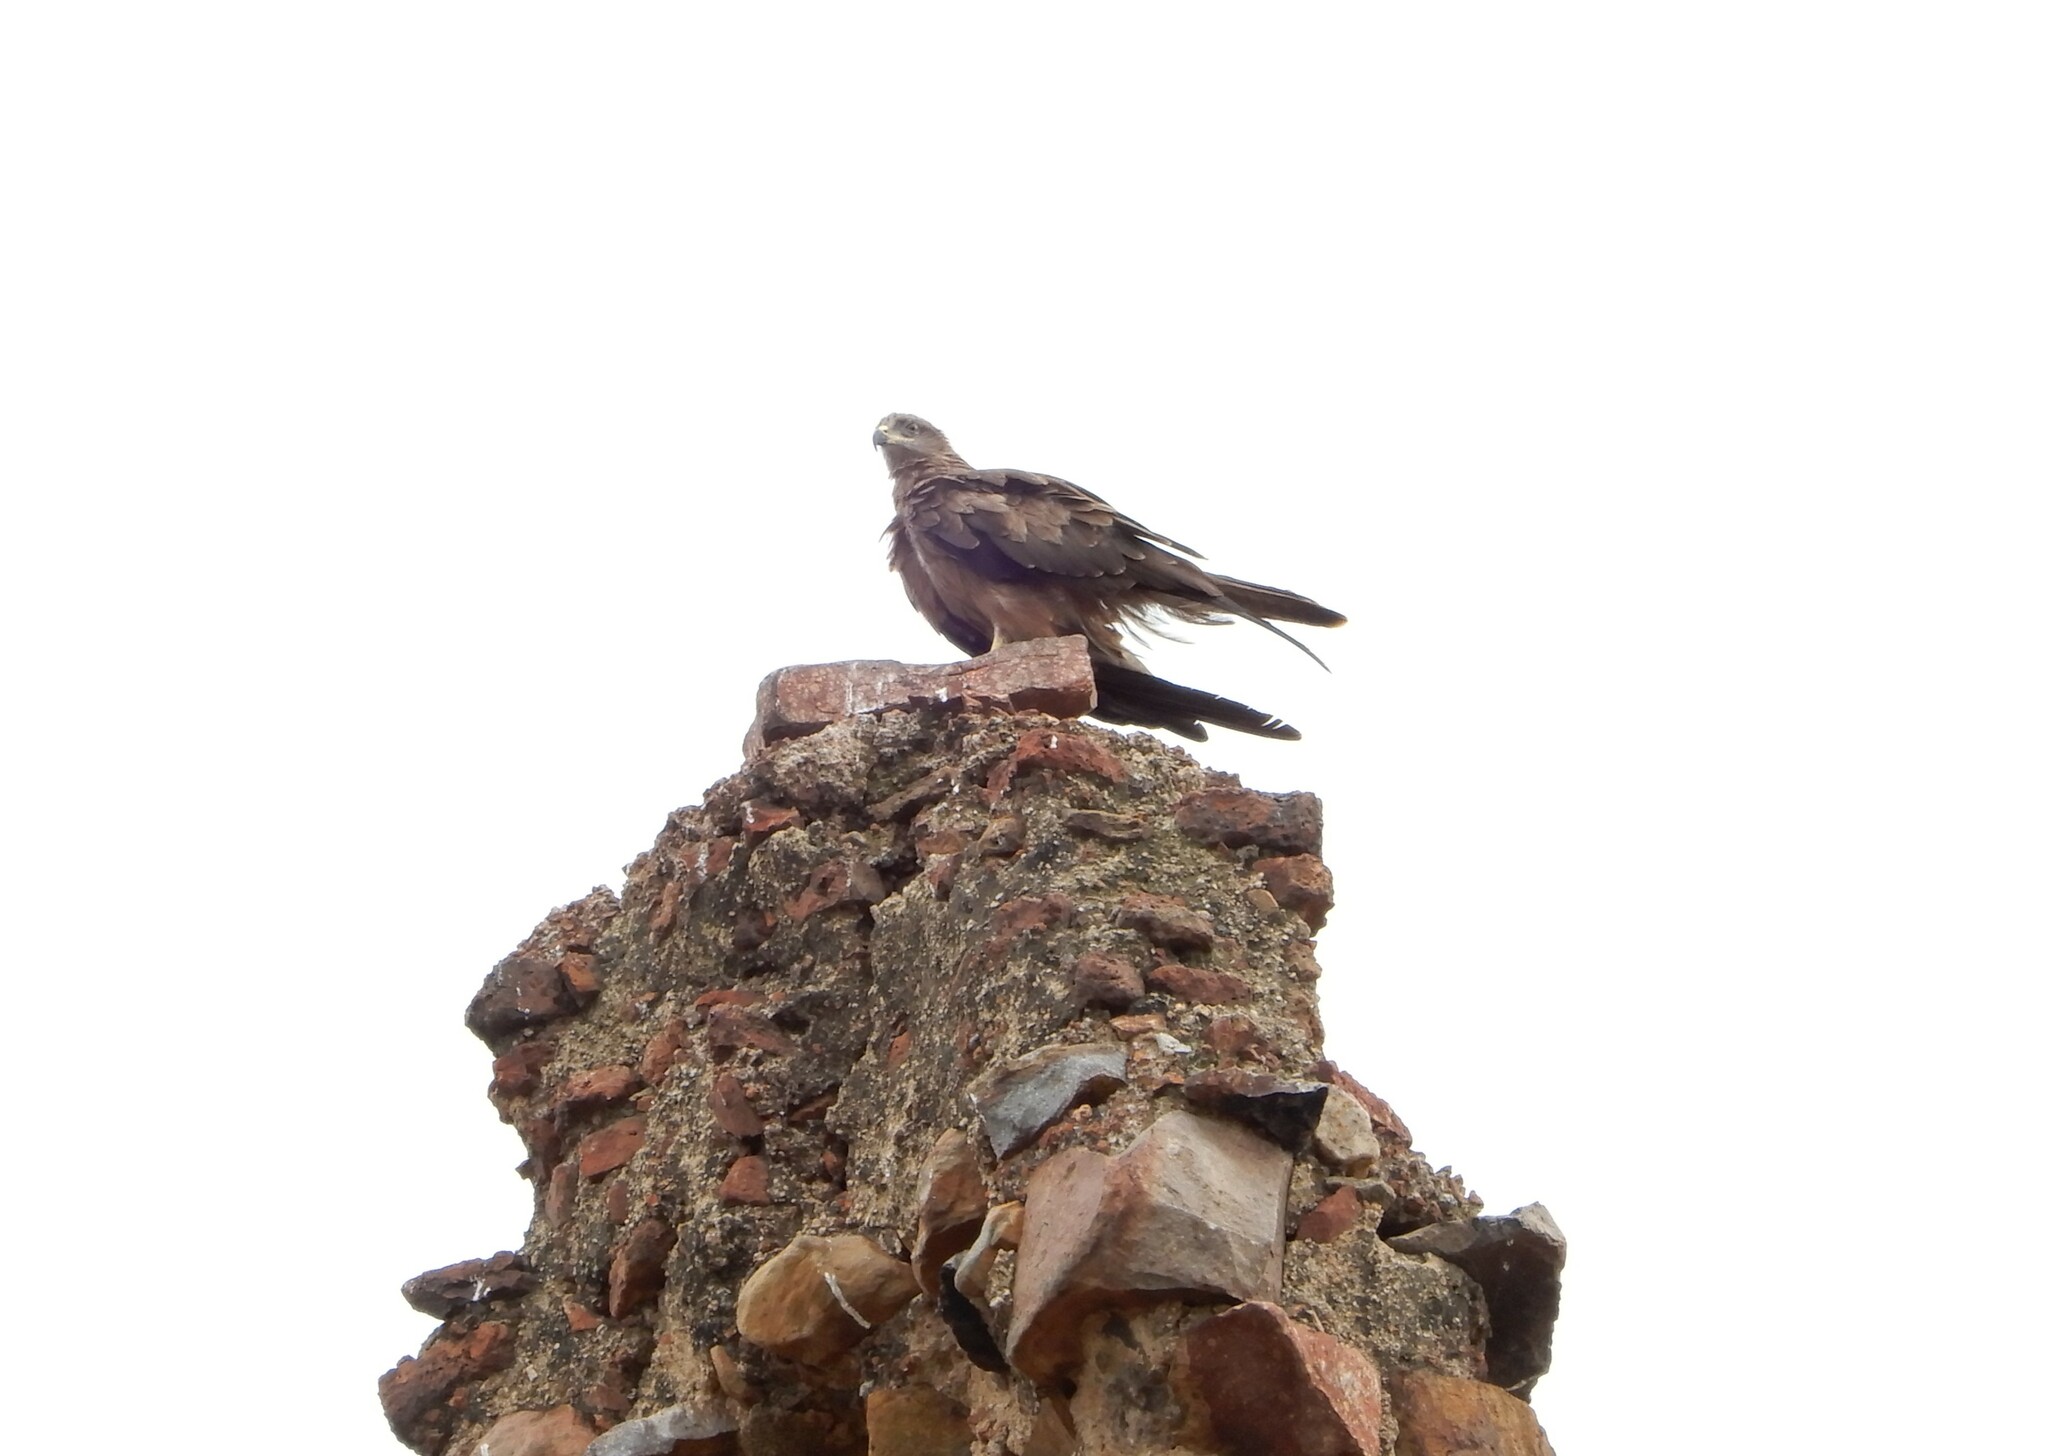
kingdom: Animalia
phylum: Chordata
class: Aves
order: Accipitriformes
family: Accipitridae
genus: Milvus
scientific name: Milvus migrans
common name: Black kite
